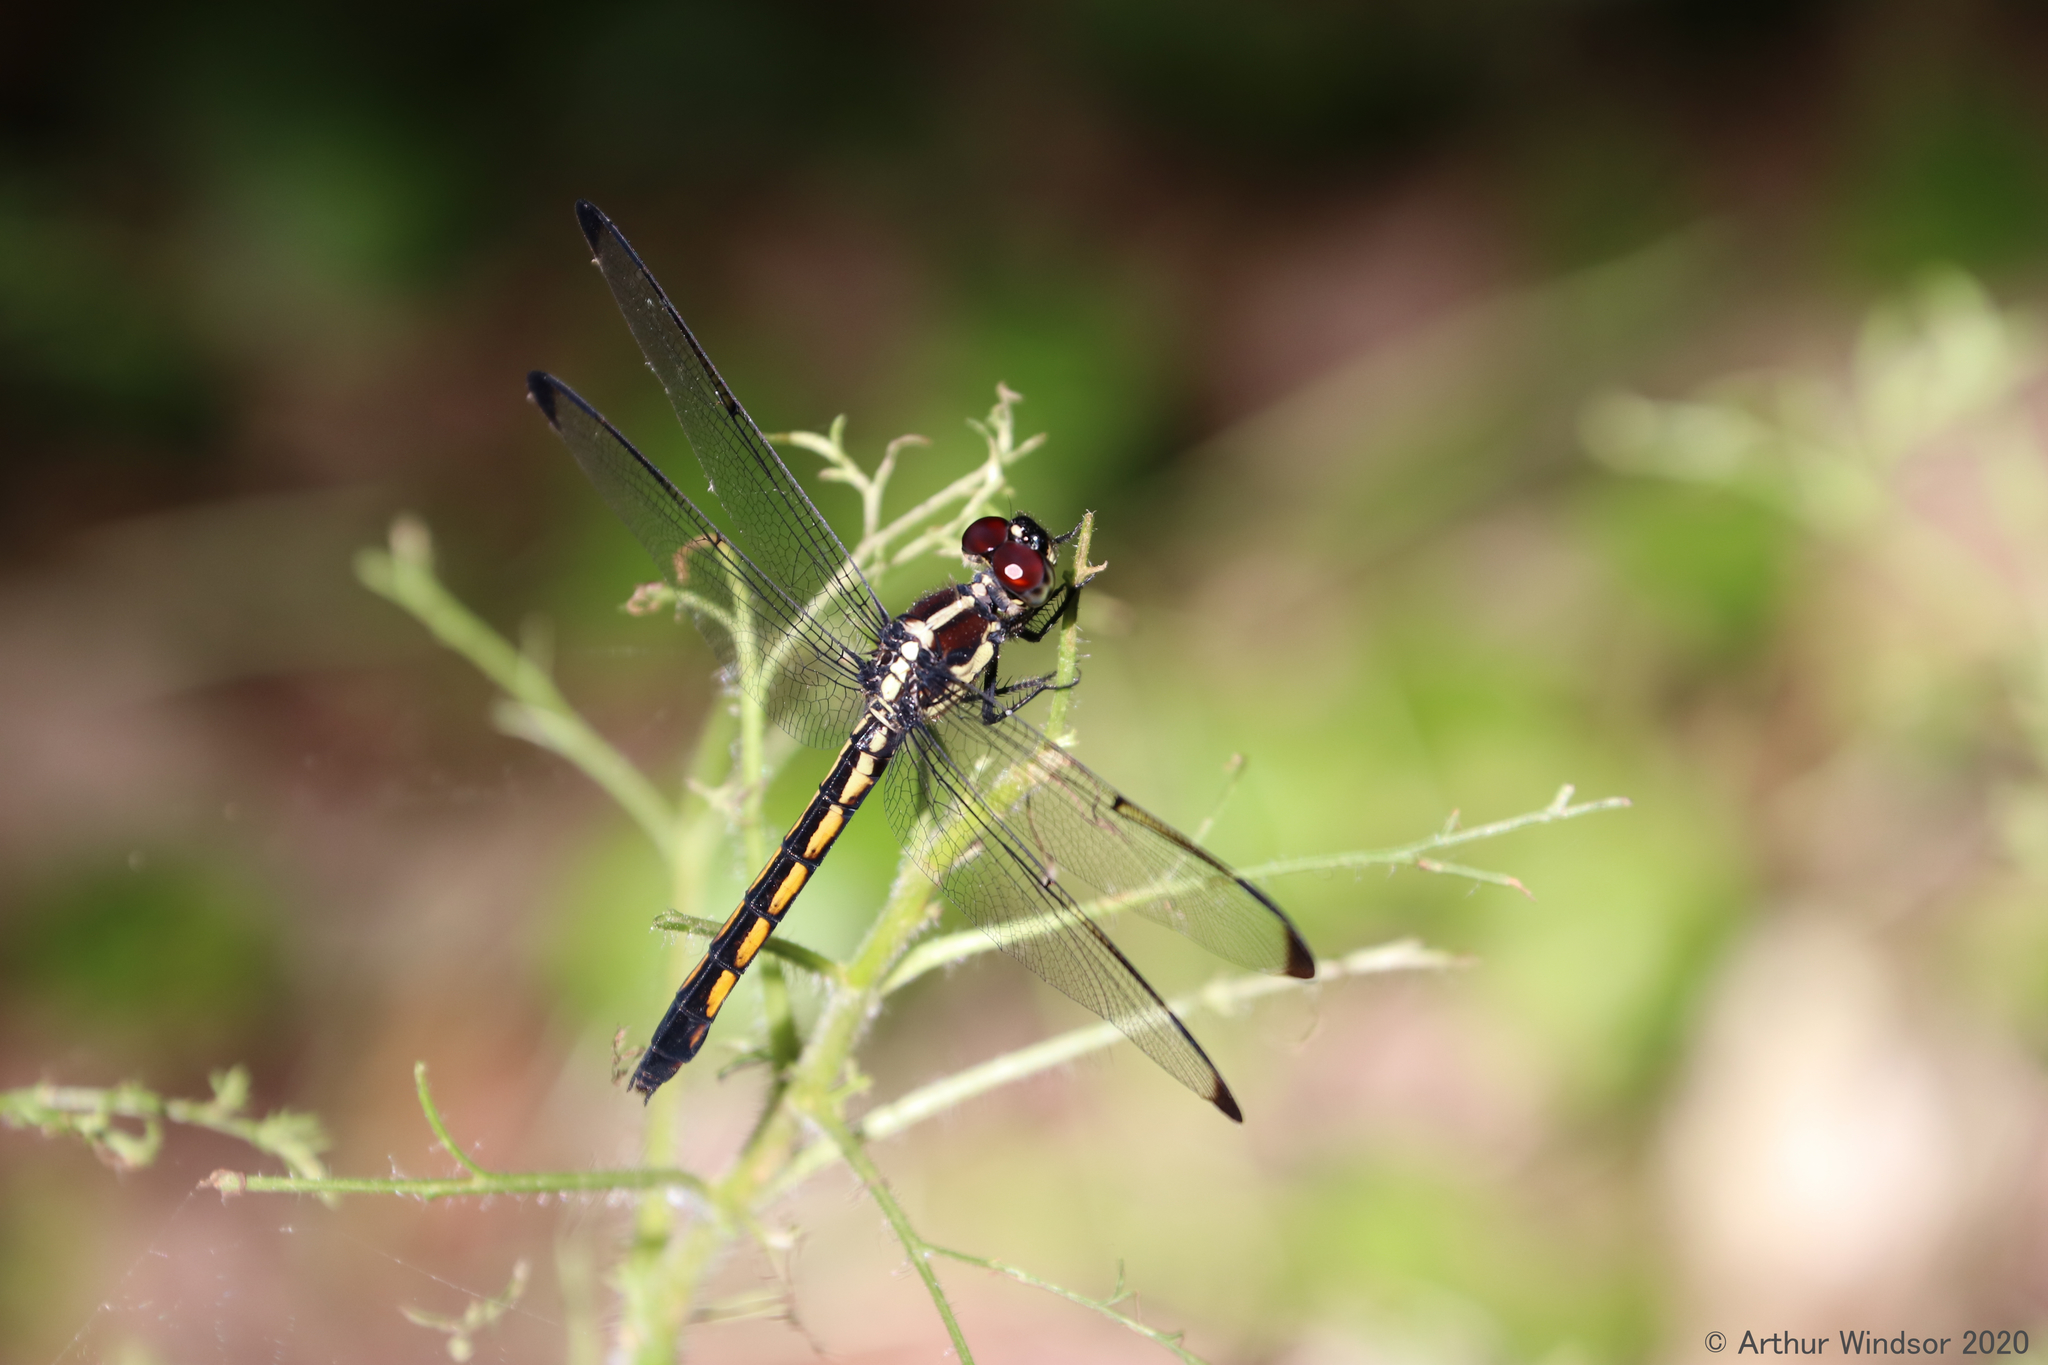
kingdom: Animalia
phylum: Arthropoda
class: Insecta
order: Odonata
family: Libellulidae
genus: Libellula
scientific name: Libellula axilena
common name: Bar-winged skimmer
